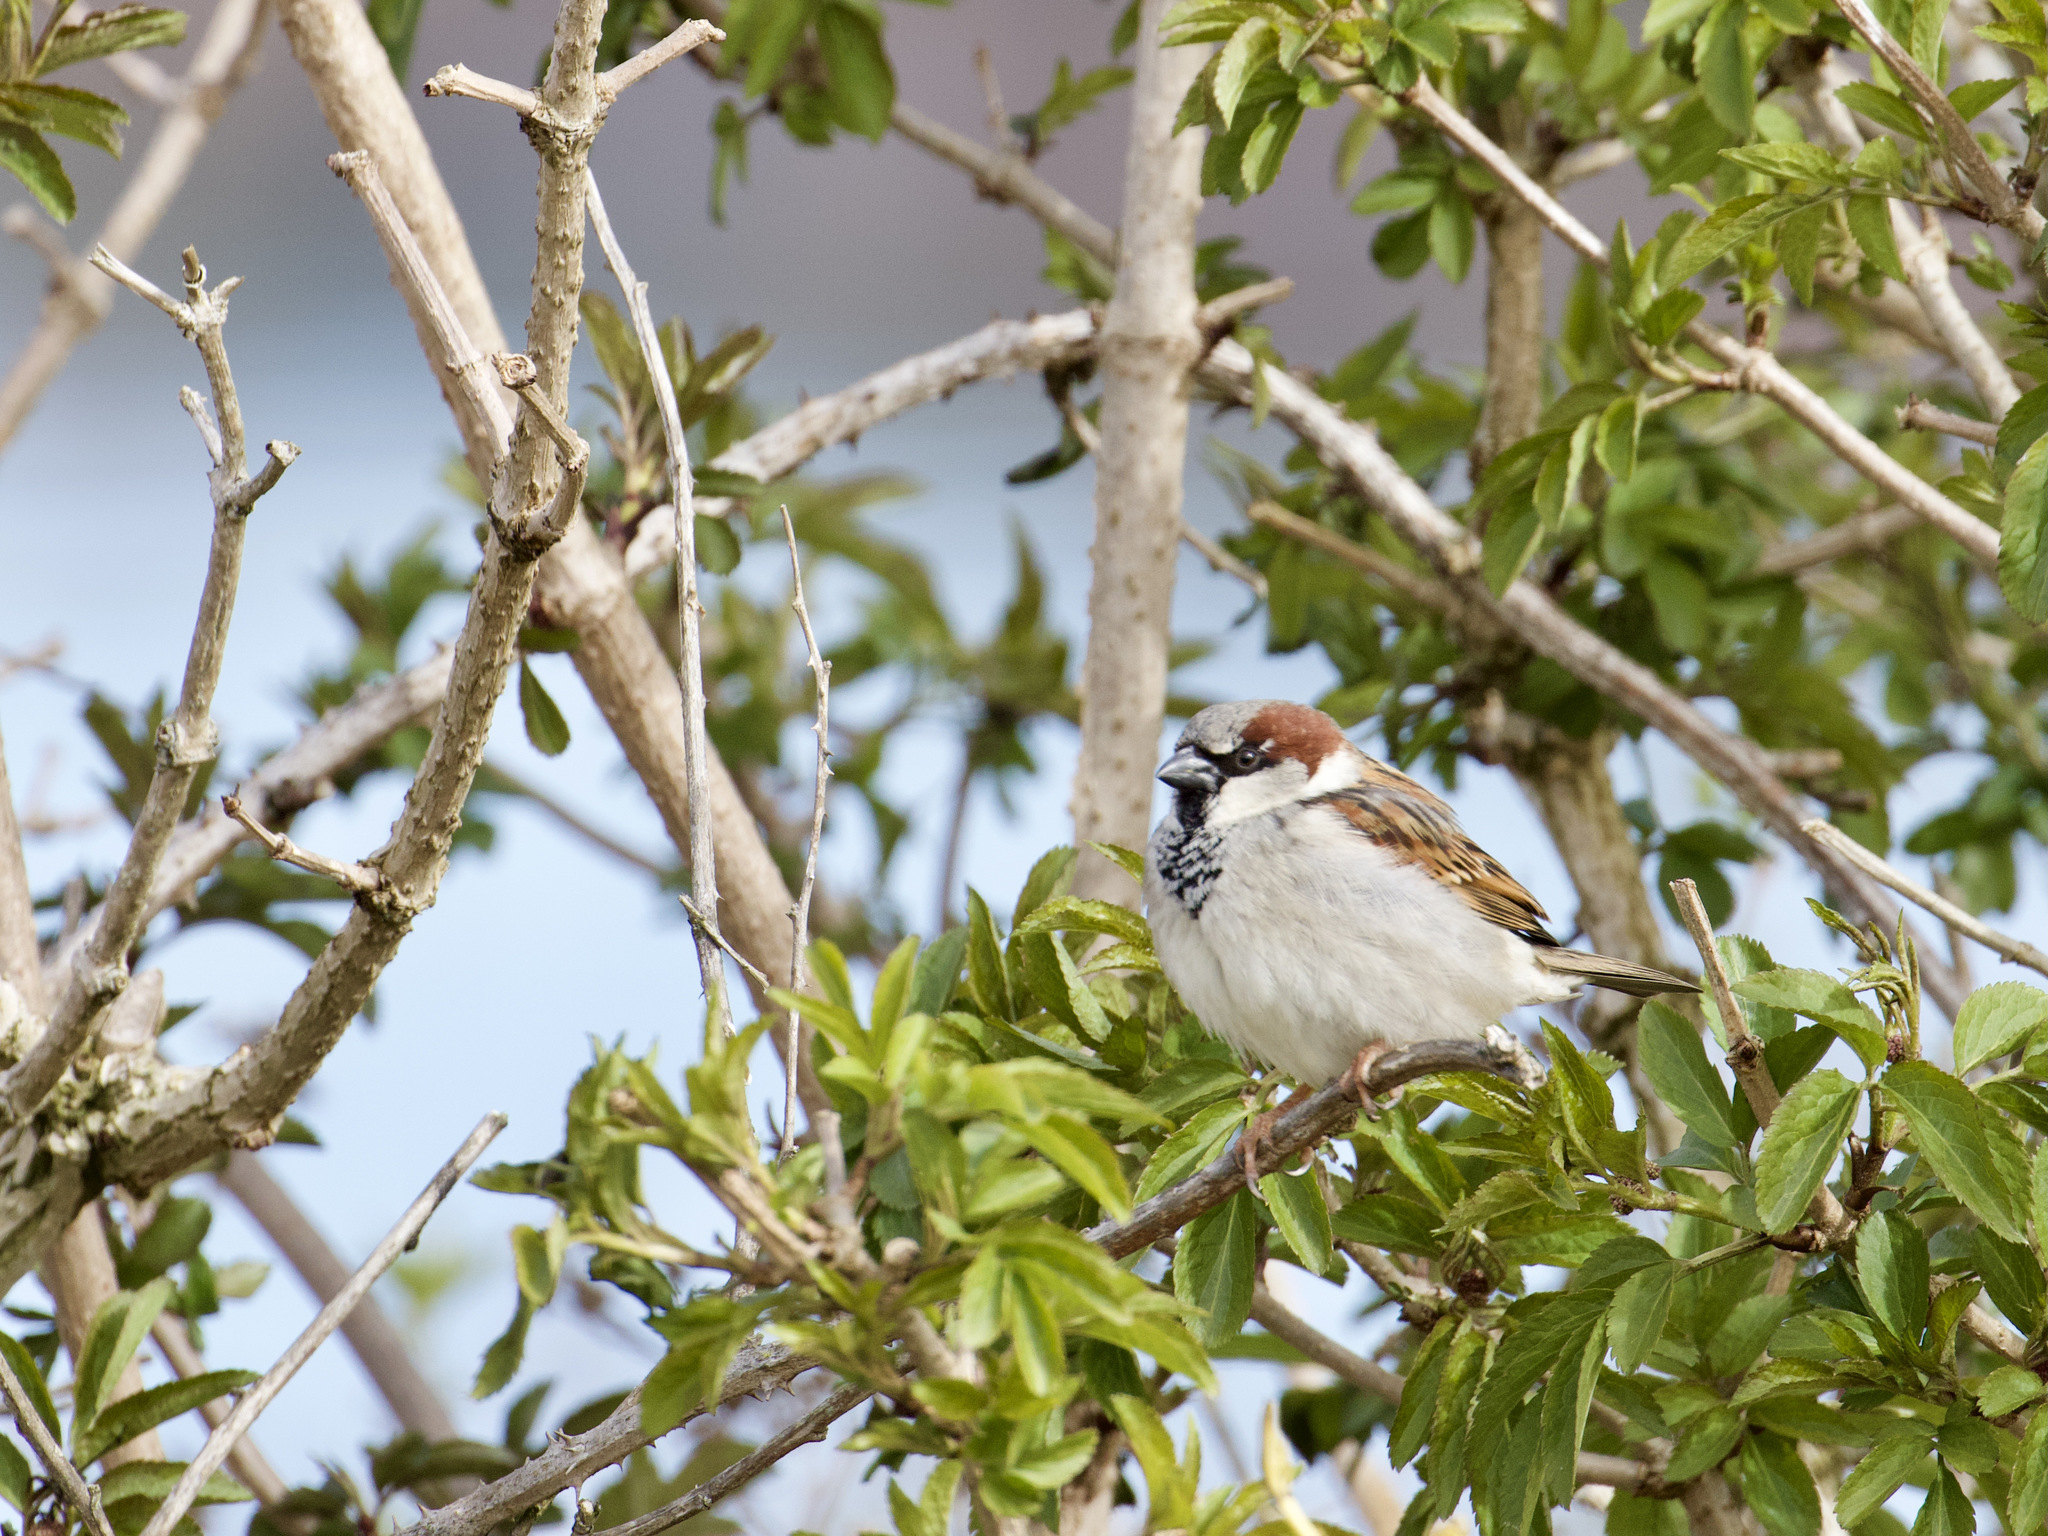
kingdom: Animalia
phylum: Chordata
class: Aves
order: Passeriformes
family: Passeridae
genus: Passer
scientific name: Passer domesticus
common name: House sparrow
